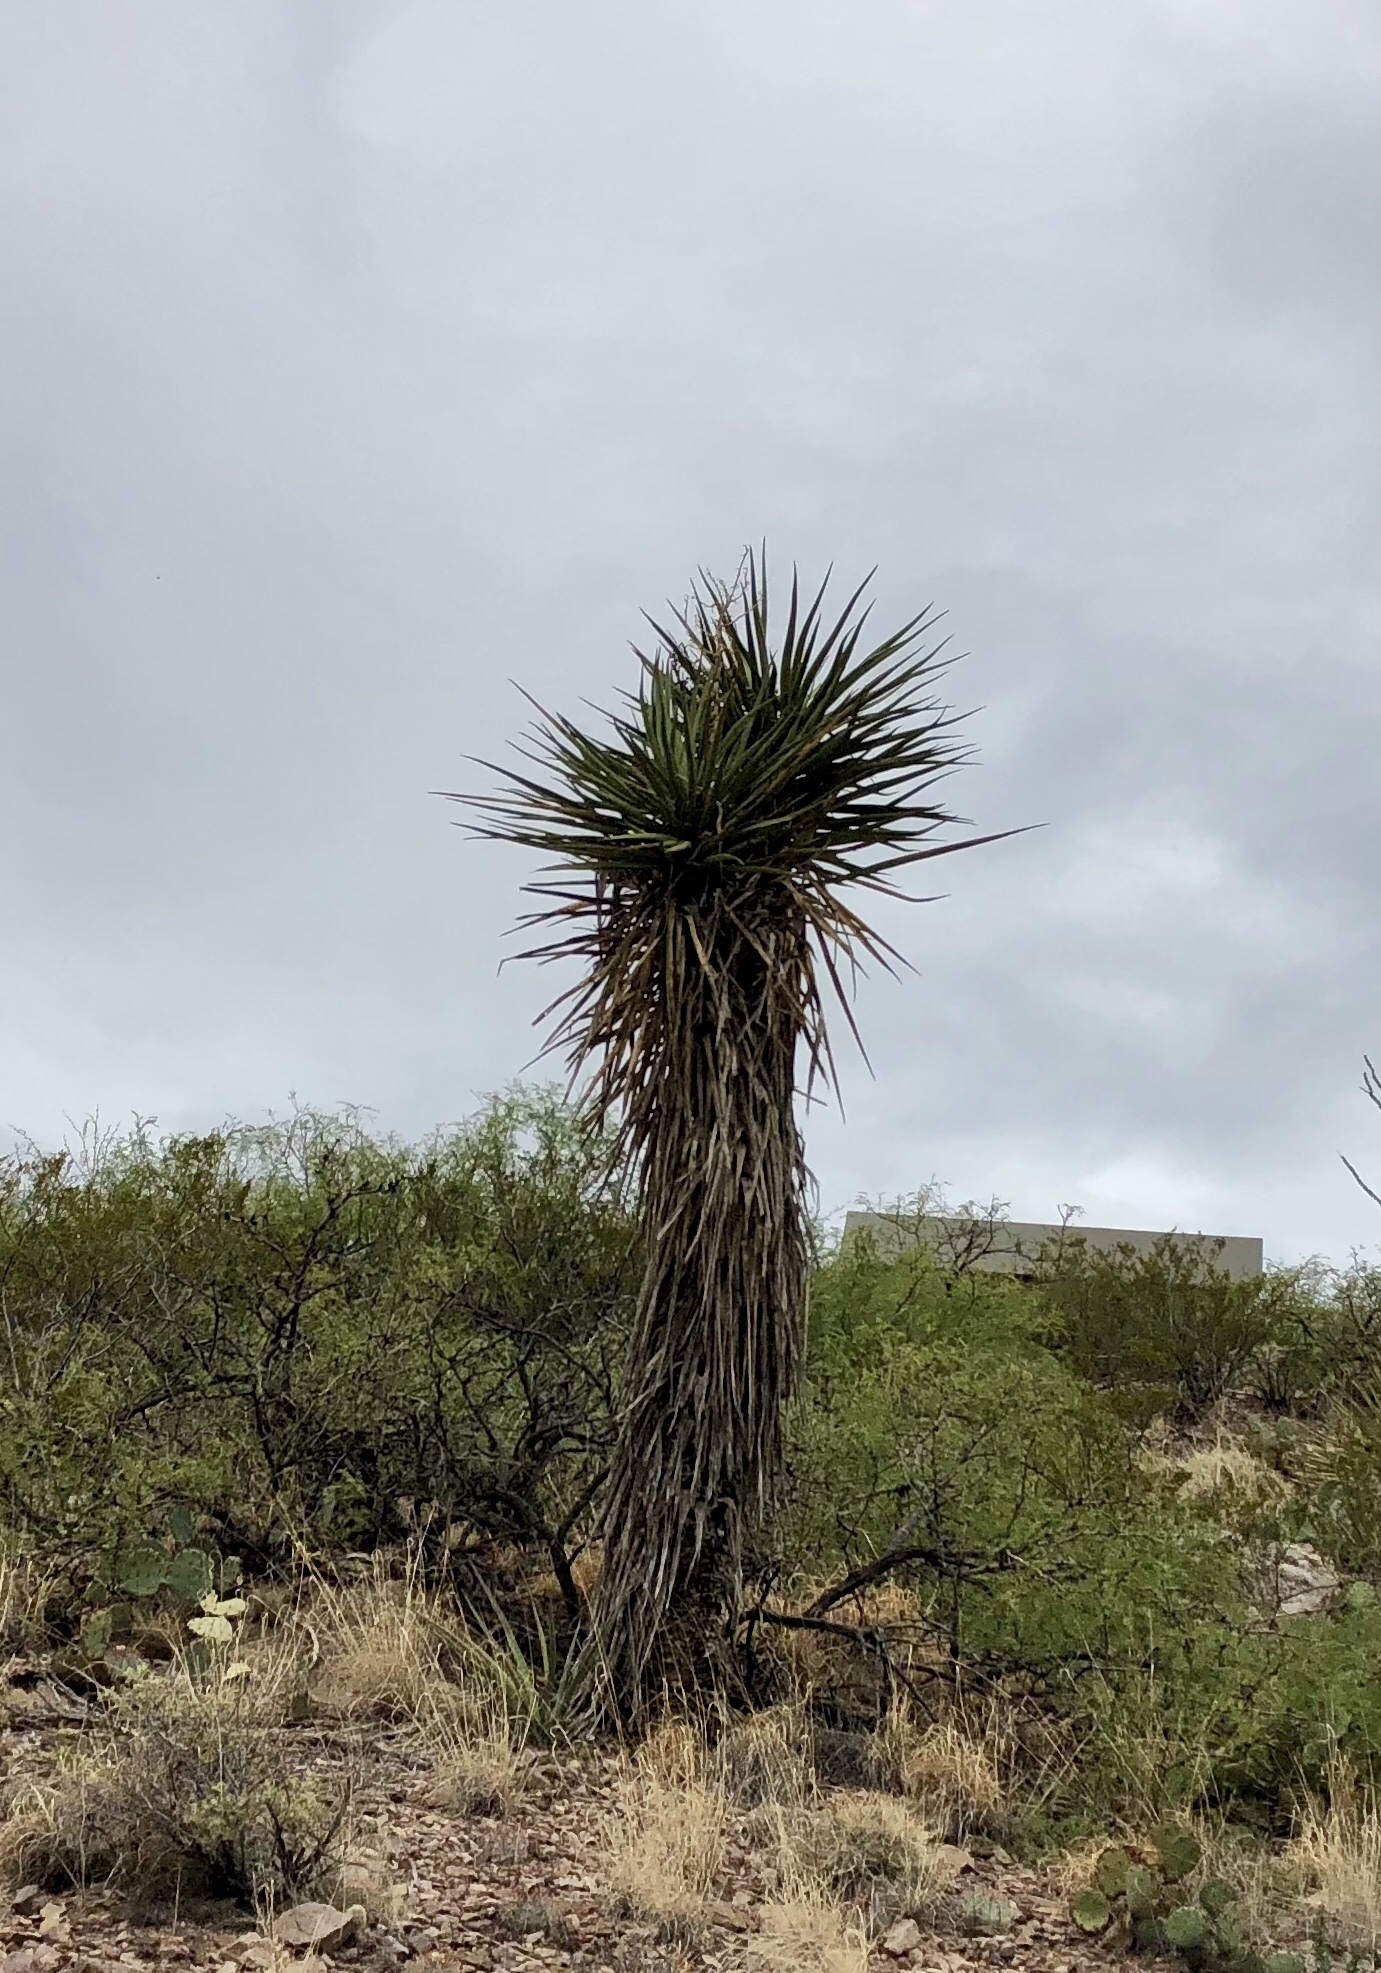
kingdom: Plantae
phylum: Tracheophyta
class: Liliopsida
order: Asparagales
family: Asparagaceae
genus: Yucca
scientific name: Yucca treculiana
